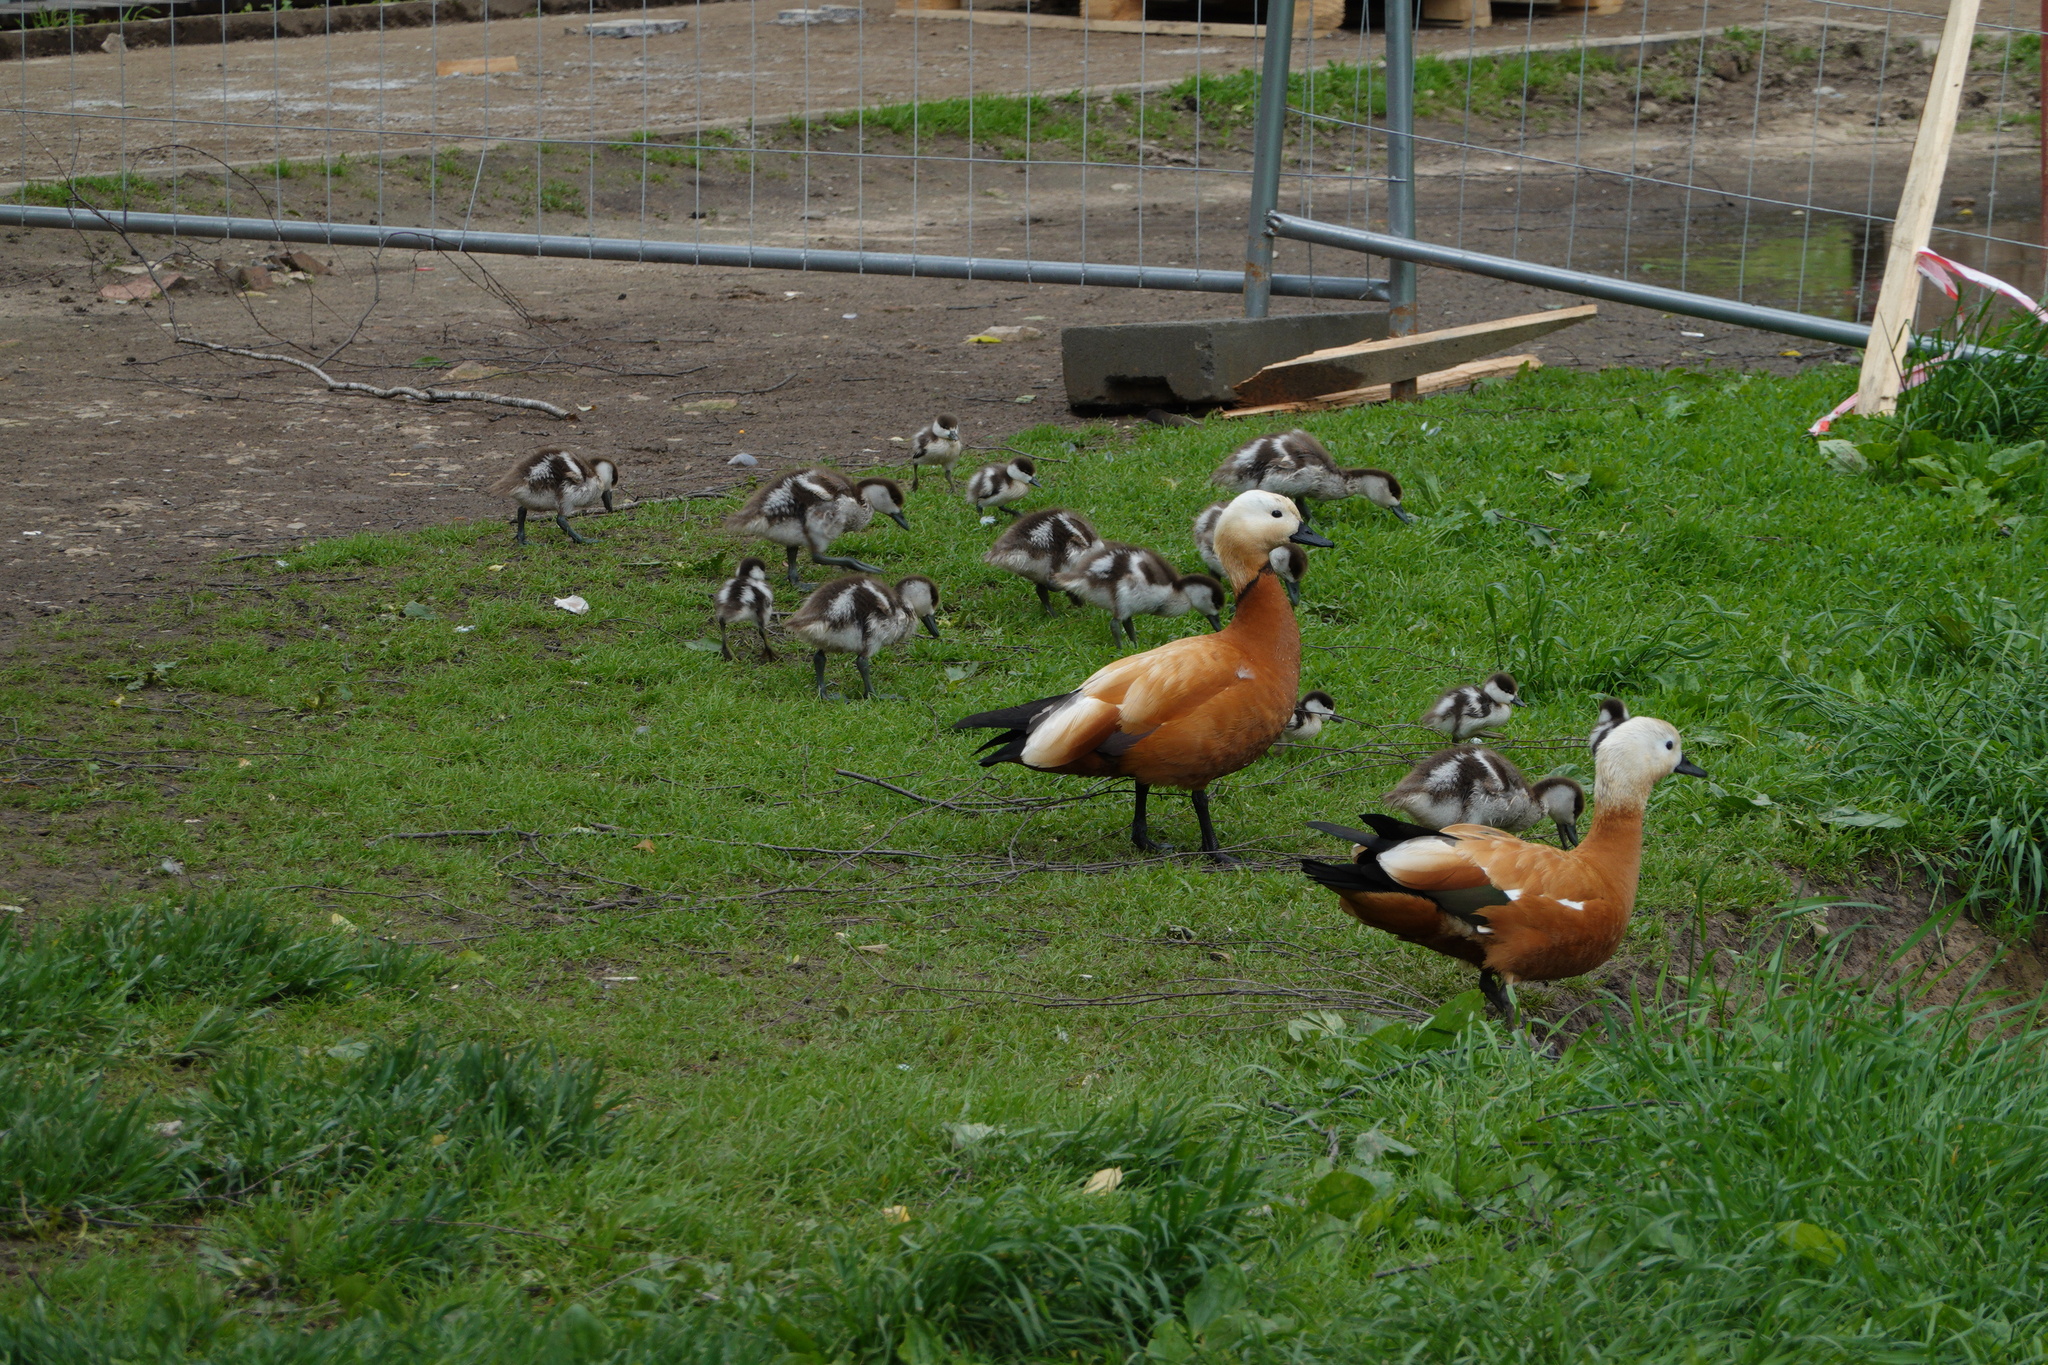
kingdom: Animalia
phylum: Chordata
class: Aves
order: Anseriformes
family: Anatidae
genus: Tadorna
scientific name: Tadorna ferruginea
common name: Ruddy shelduck
